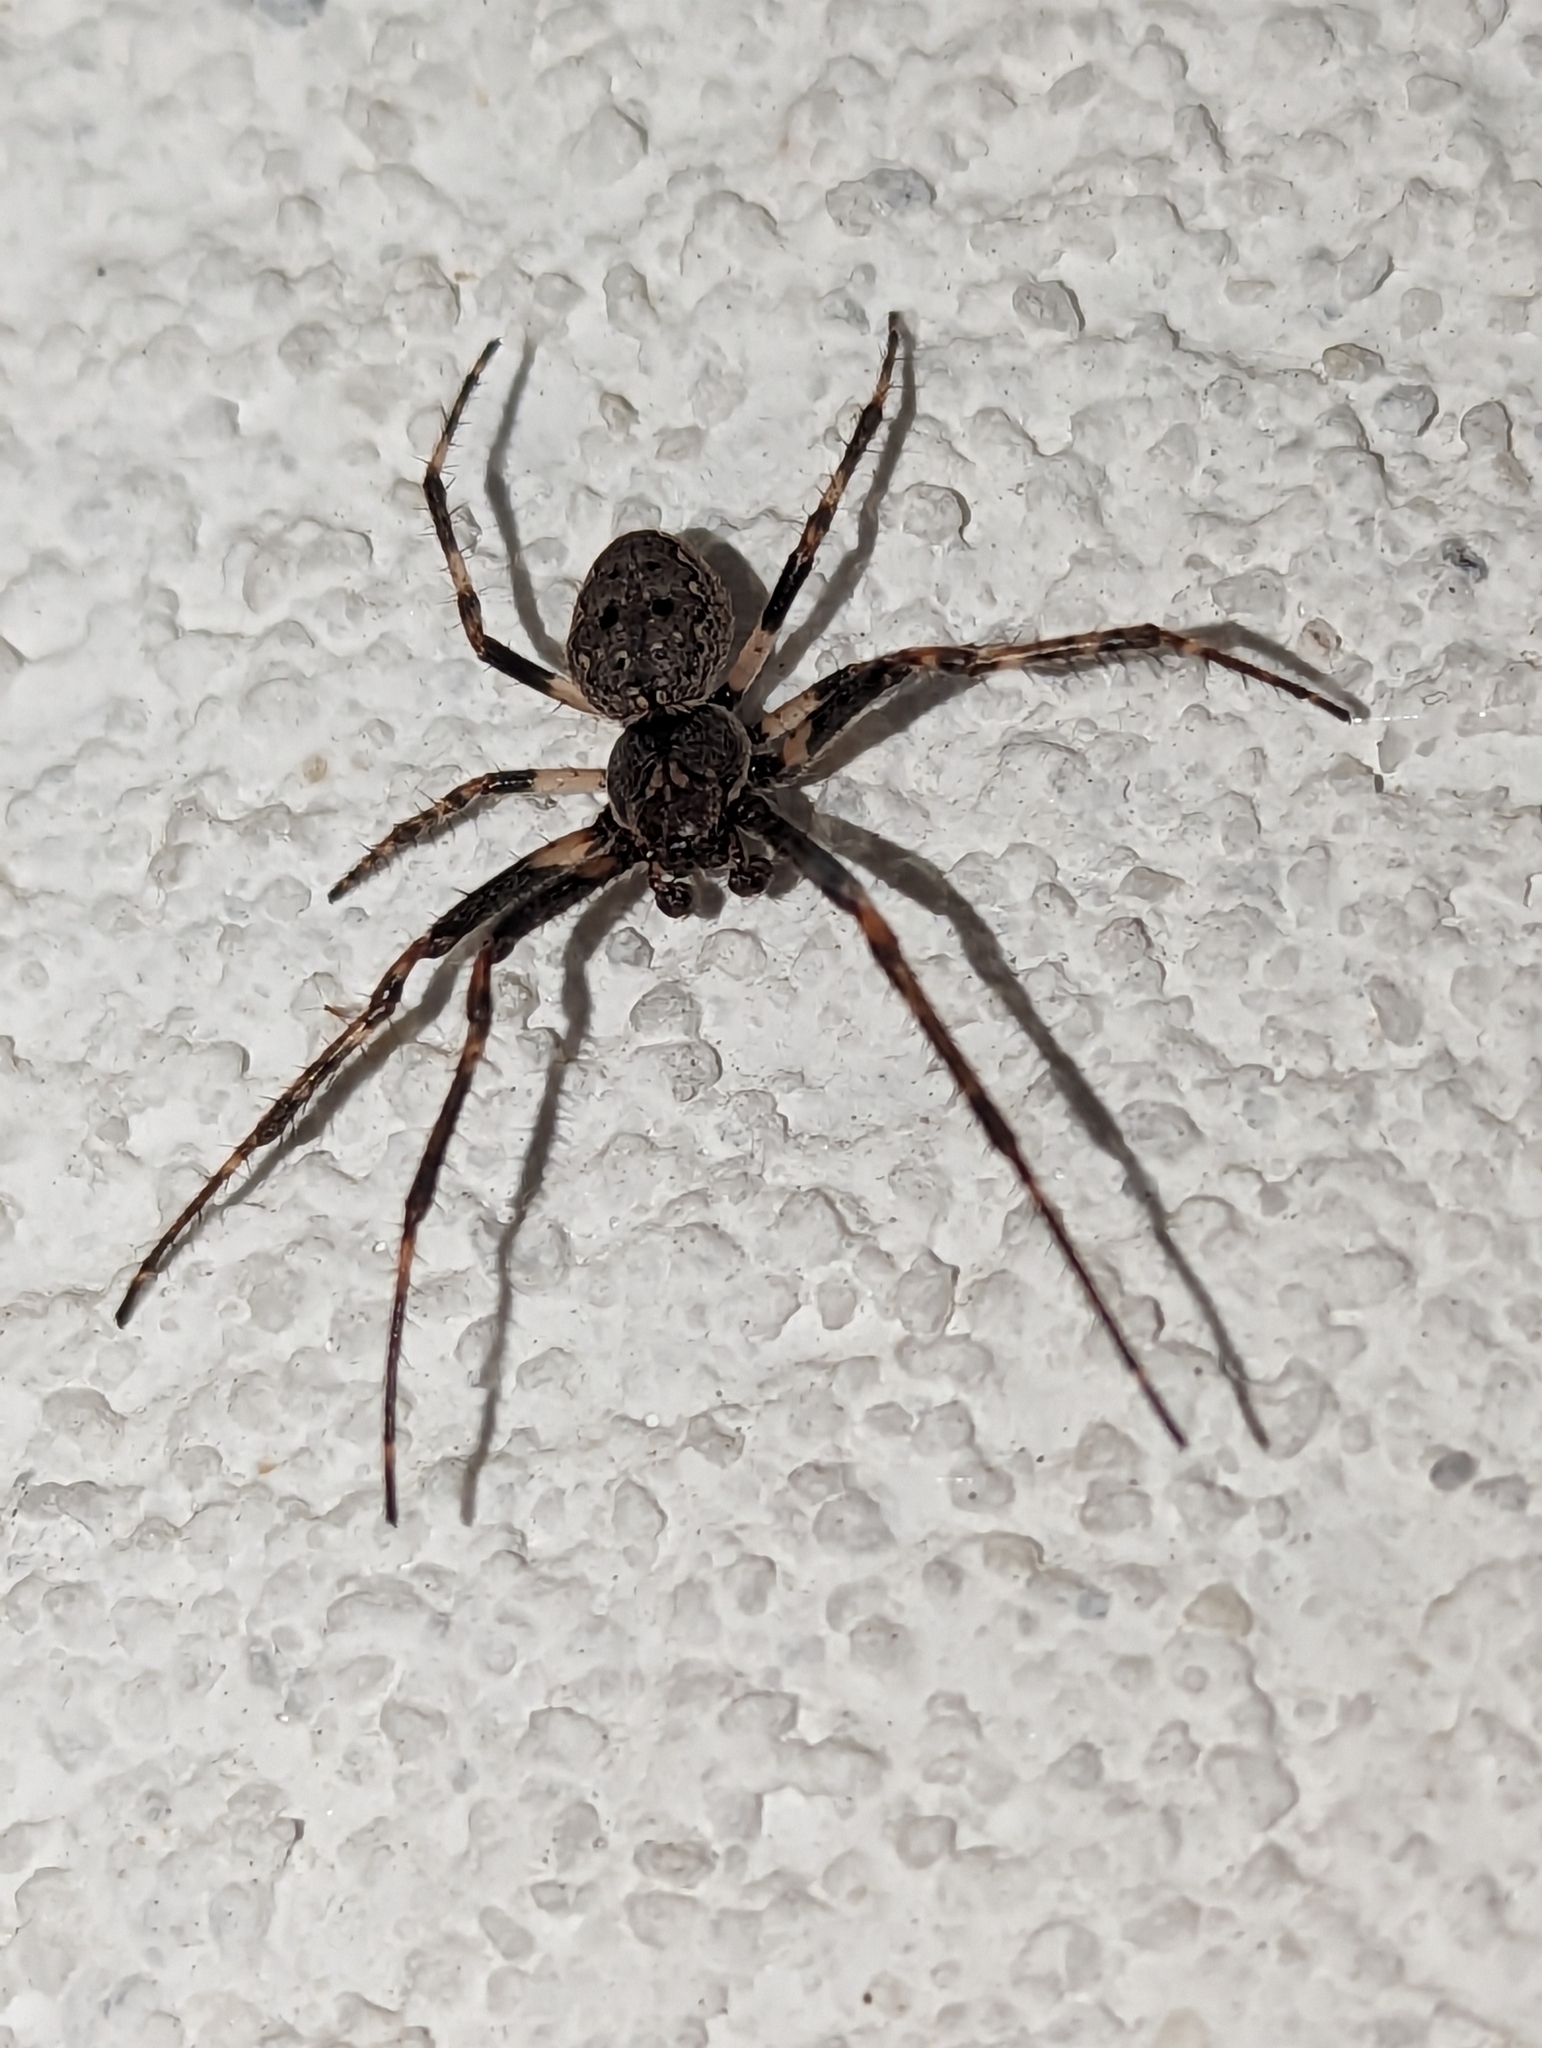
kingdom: Animalia
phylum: Arthropoda
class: Arachnida
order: Araneae
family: Araneidae
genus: Nuctenea
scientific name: Nuctenea umbratica
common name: Toad spider
